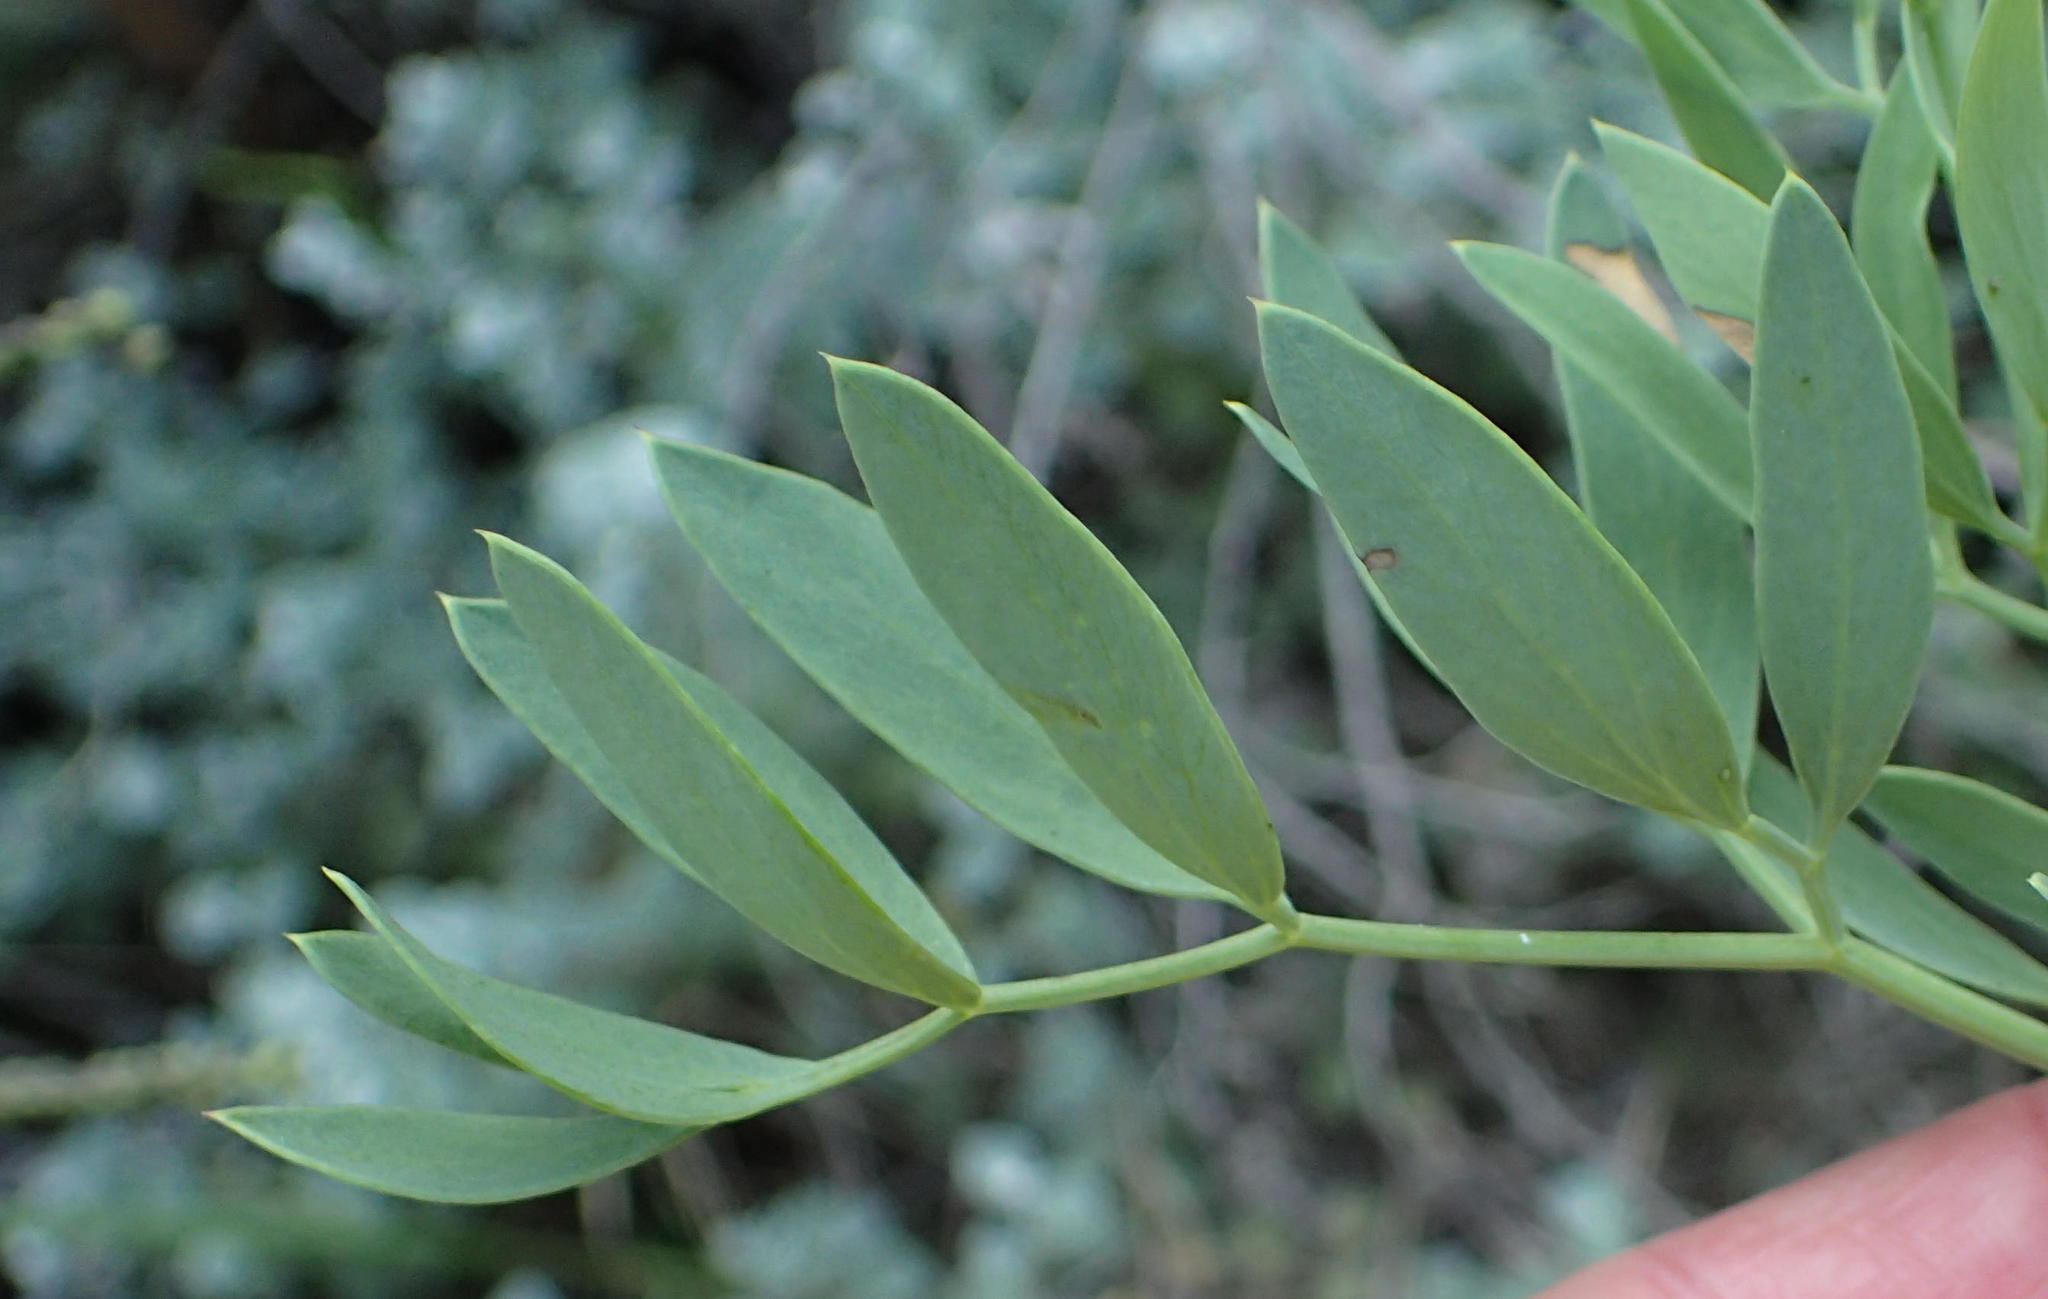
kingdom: Plantae
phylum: Tracheophyta
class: Magnoliopsida
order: Apiales
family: Apiaceae
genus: Notobubon
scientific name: Notobubon laevigatum
